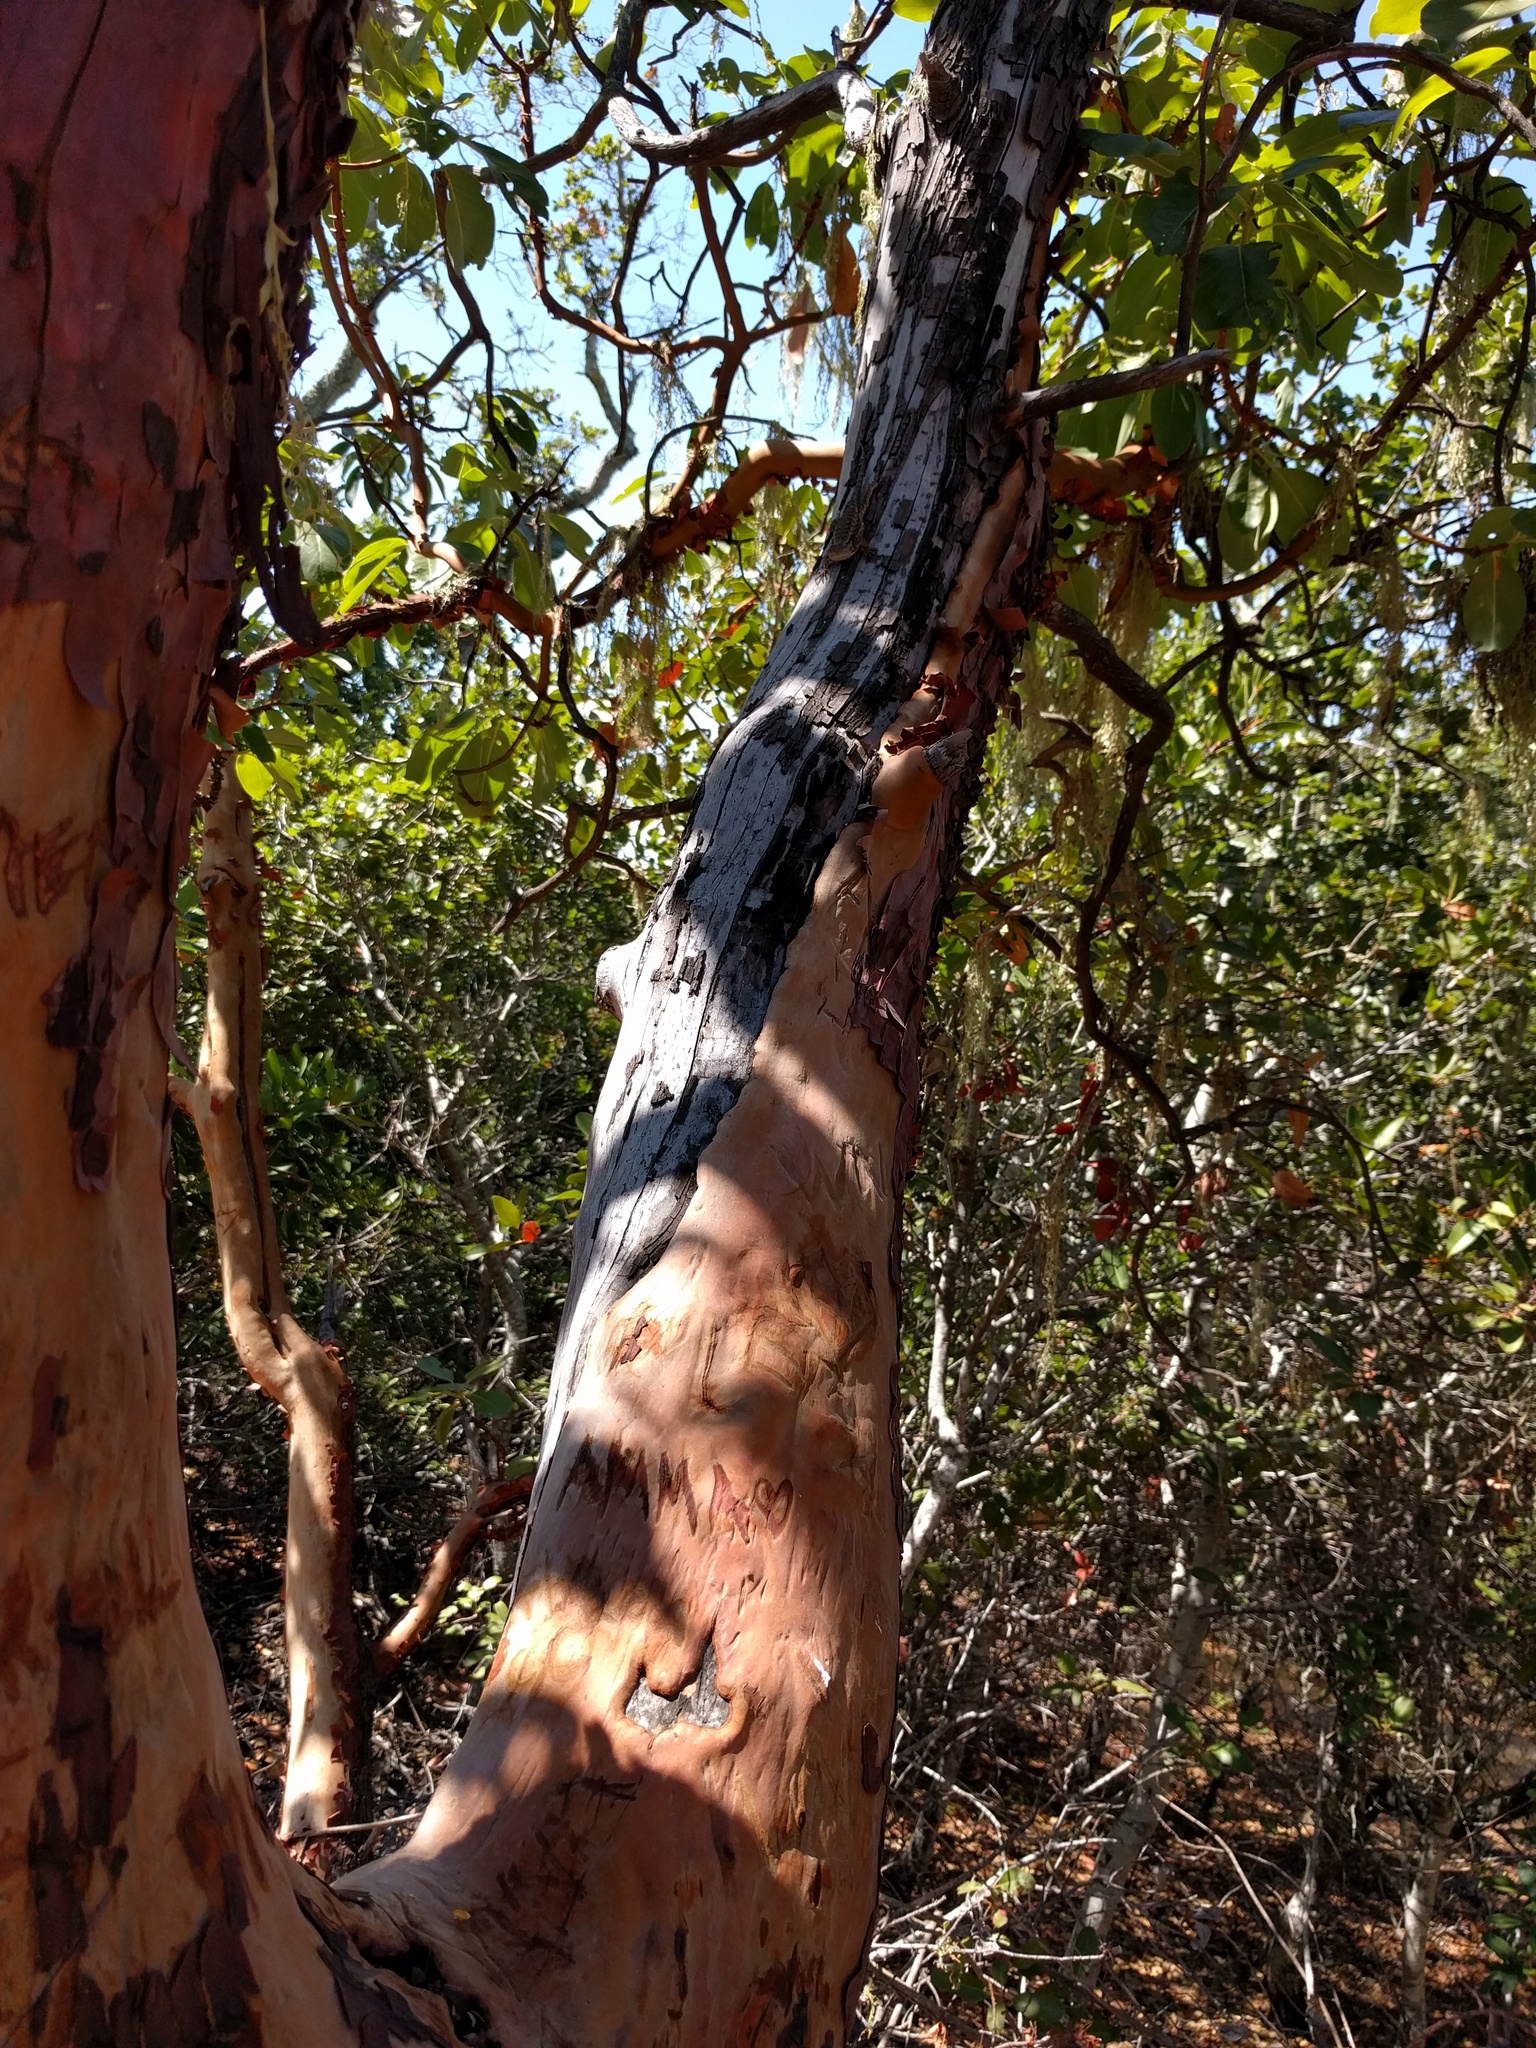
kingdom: Plantae
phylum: Tracheophyta
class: Magnoliopsida
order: Ericales
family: Ericaceae
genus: Arbutus
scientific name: Arbutus menziesii
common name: Pacific madrone
